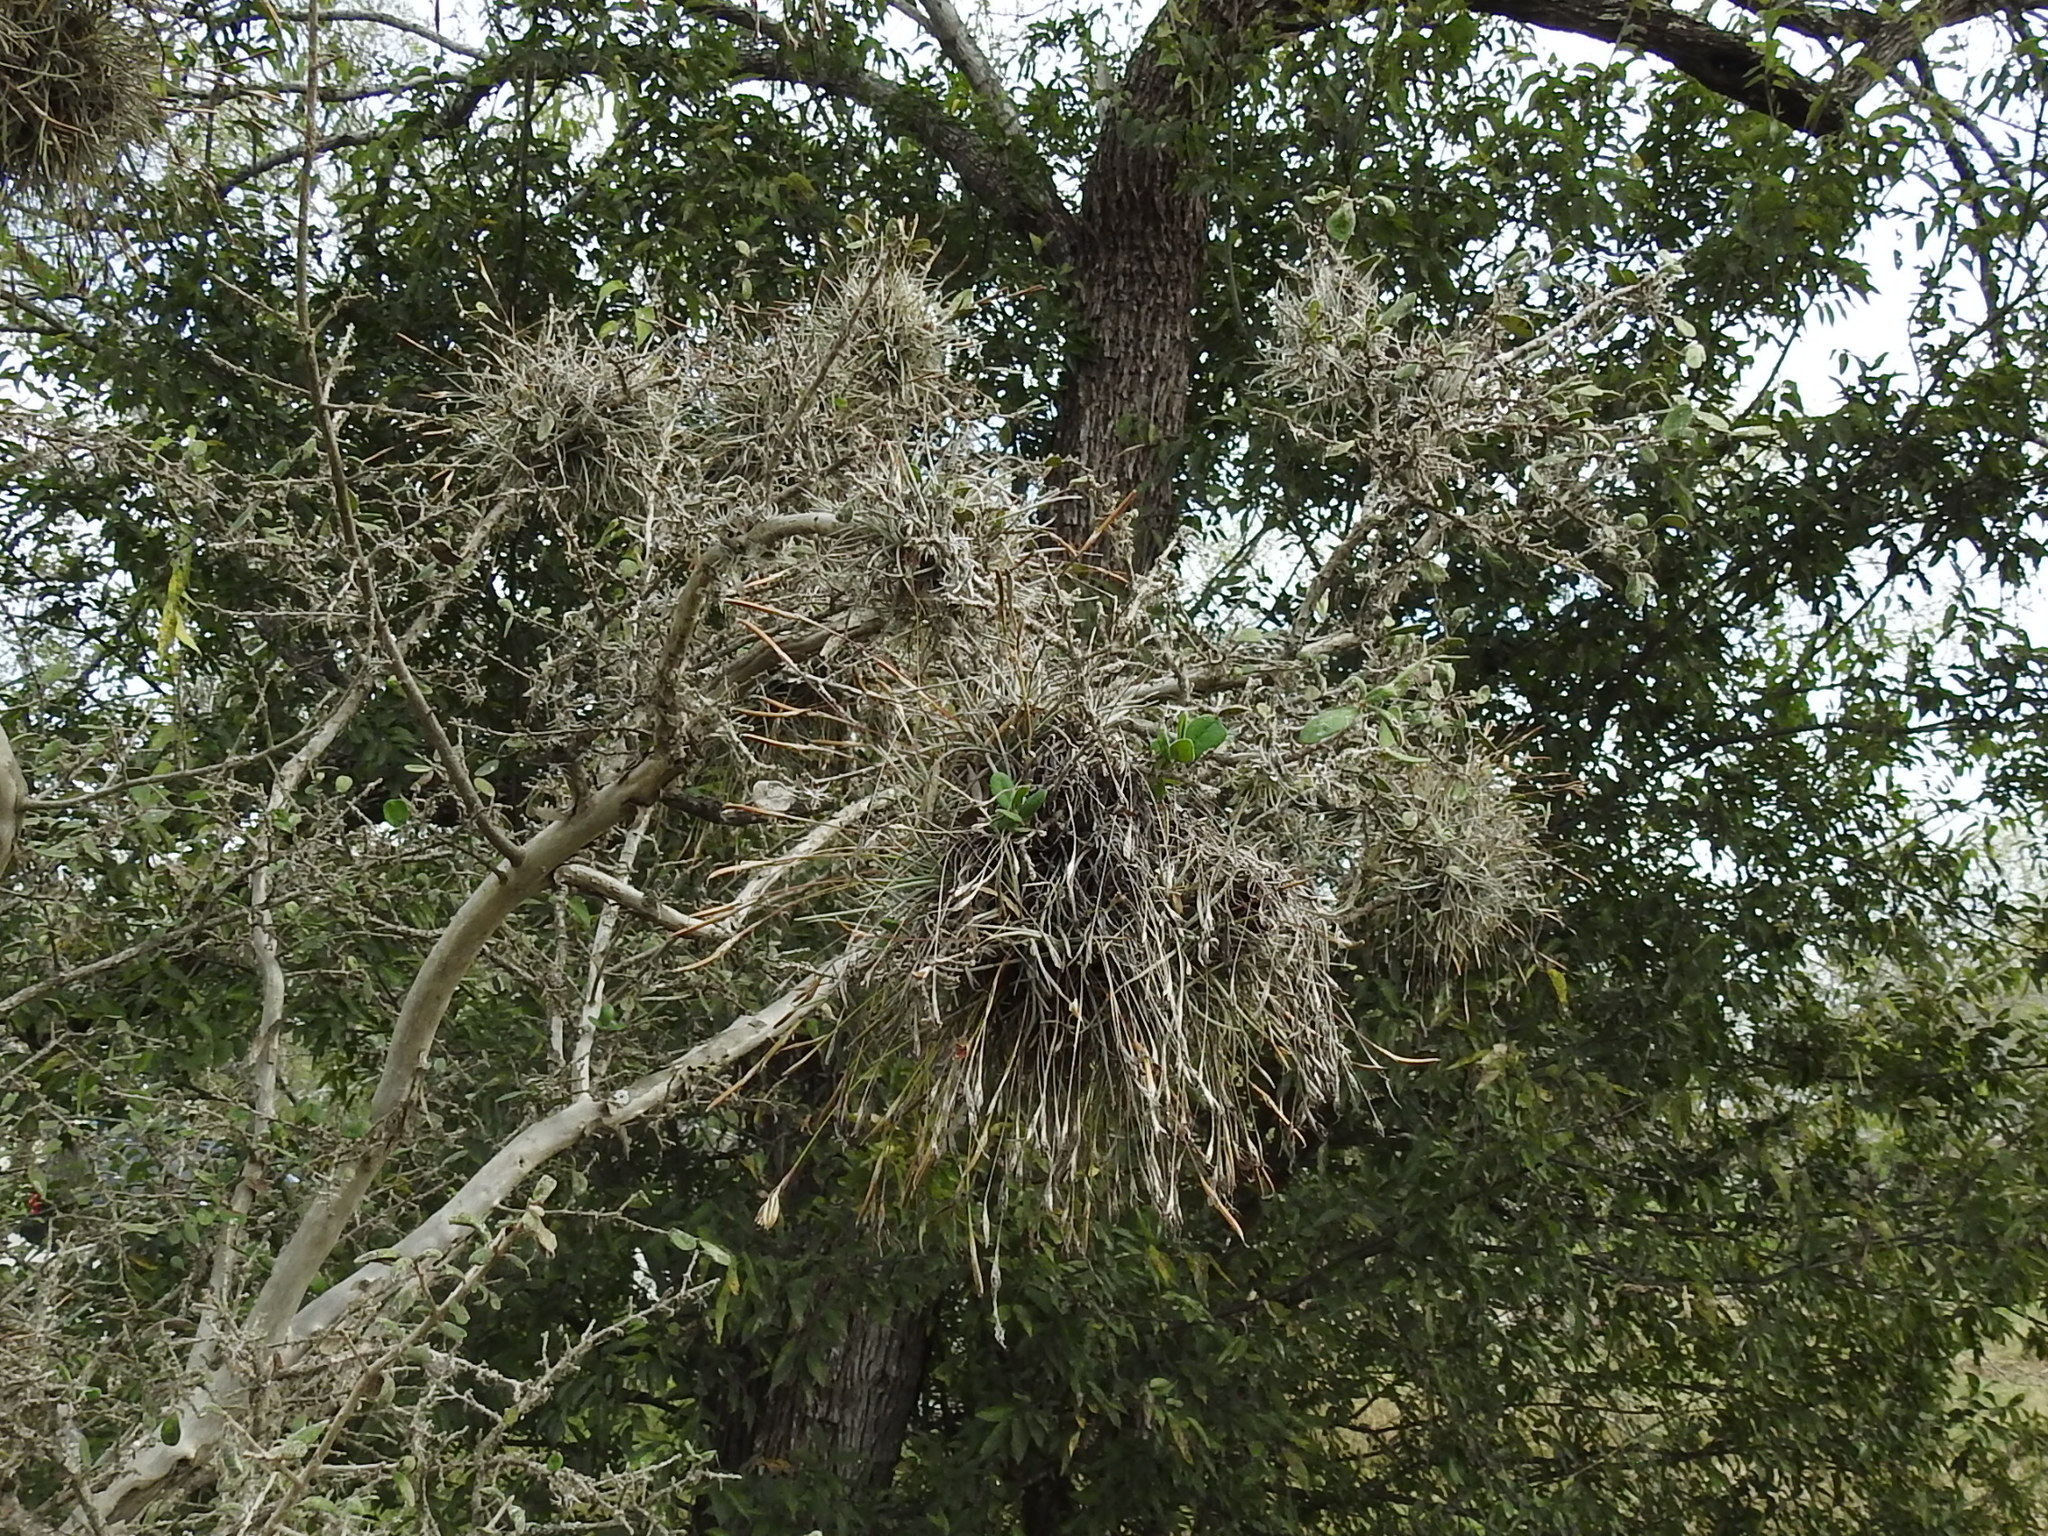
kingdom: Plantae
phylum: Tracheophyta
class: Liliopsida
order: Poales
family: Bromeliaceae
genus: Tillandsia
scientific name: Tillandsia recurvata
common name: Small ballmoss
